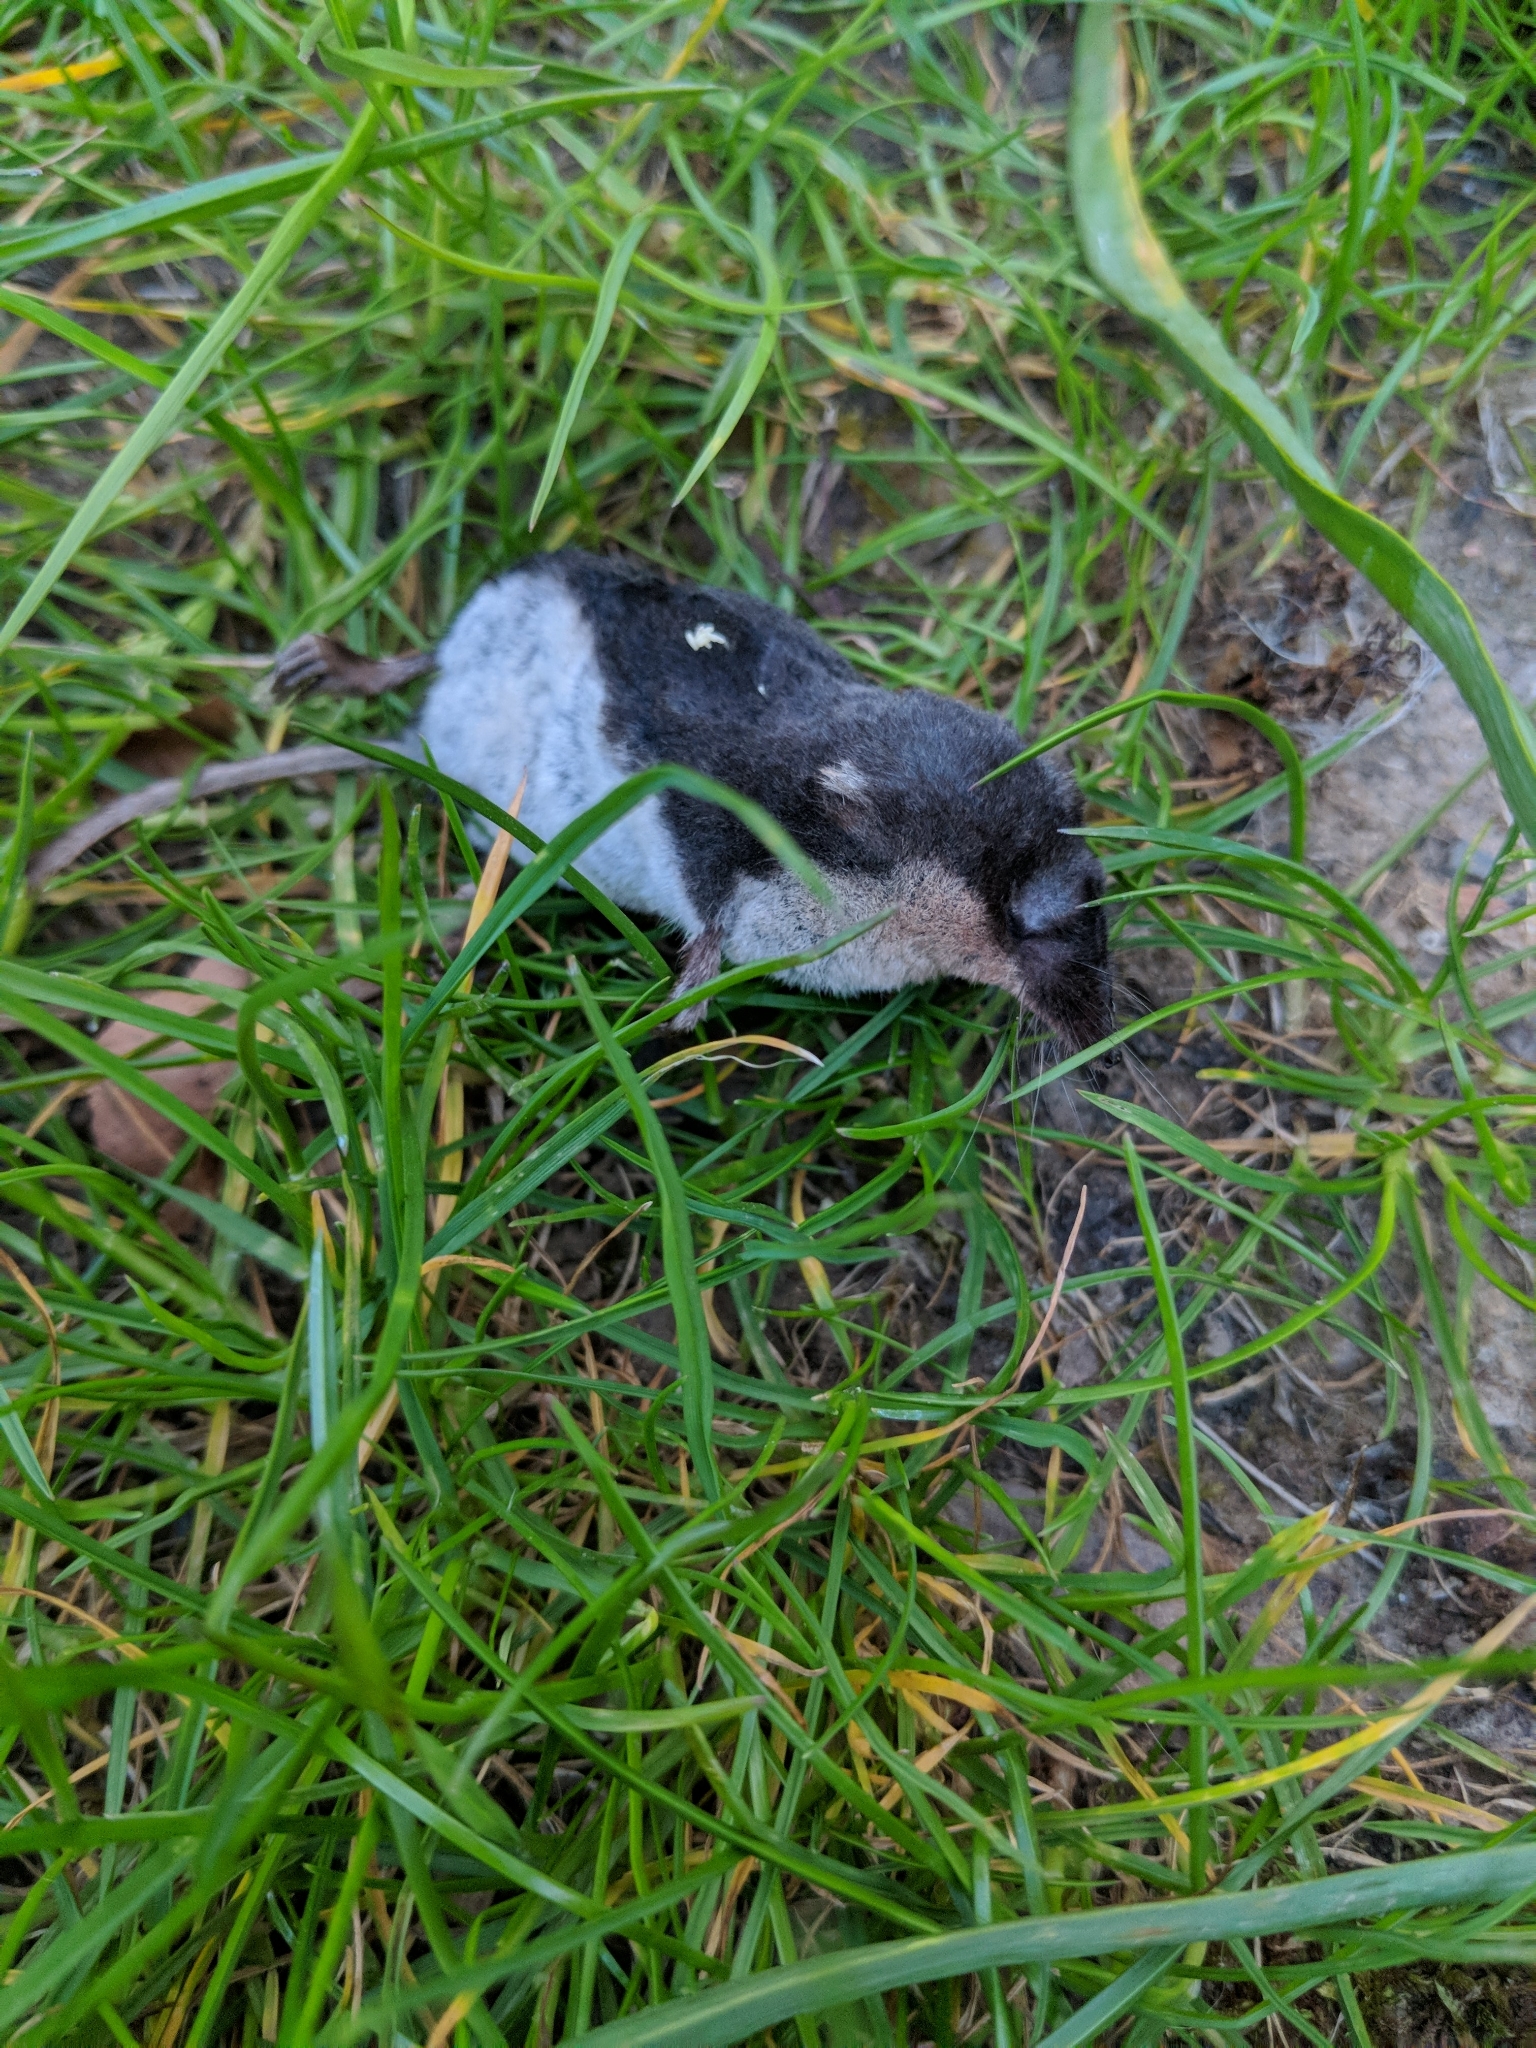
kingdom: Animalia
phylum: Chordata
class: Mammalia
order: Soricomorpha
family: Soricidae
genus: Neomys
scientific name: Neomys fodiens
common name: Eurasian water shrew
